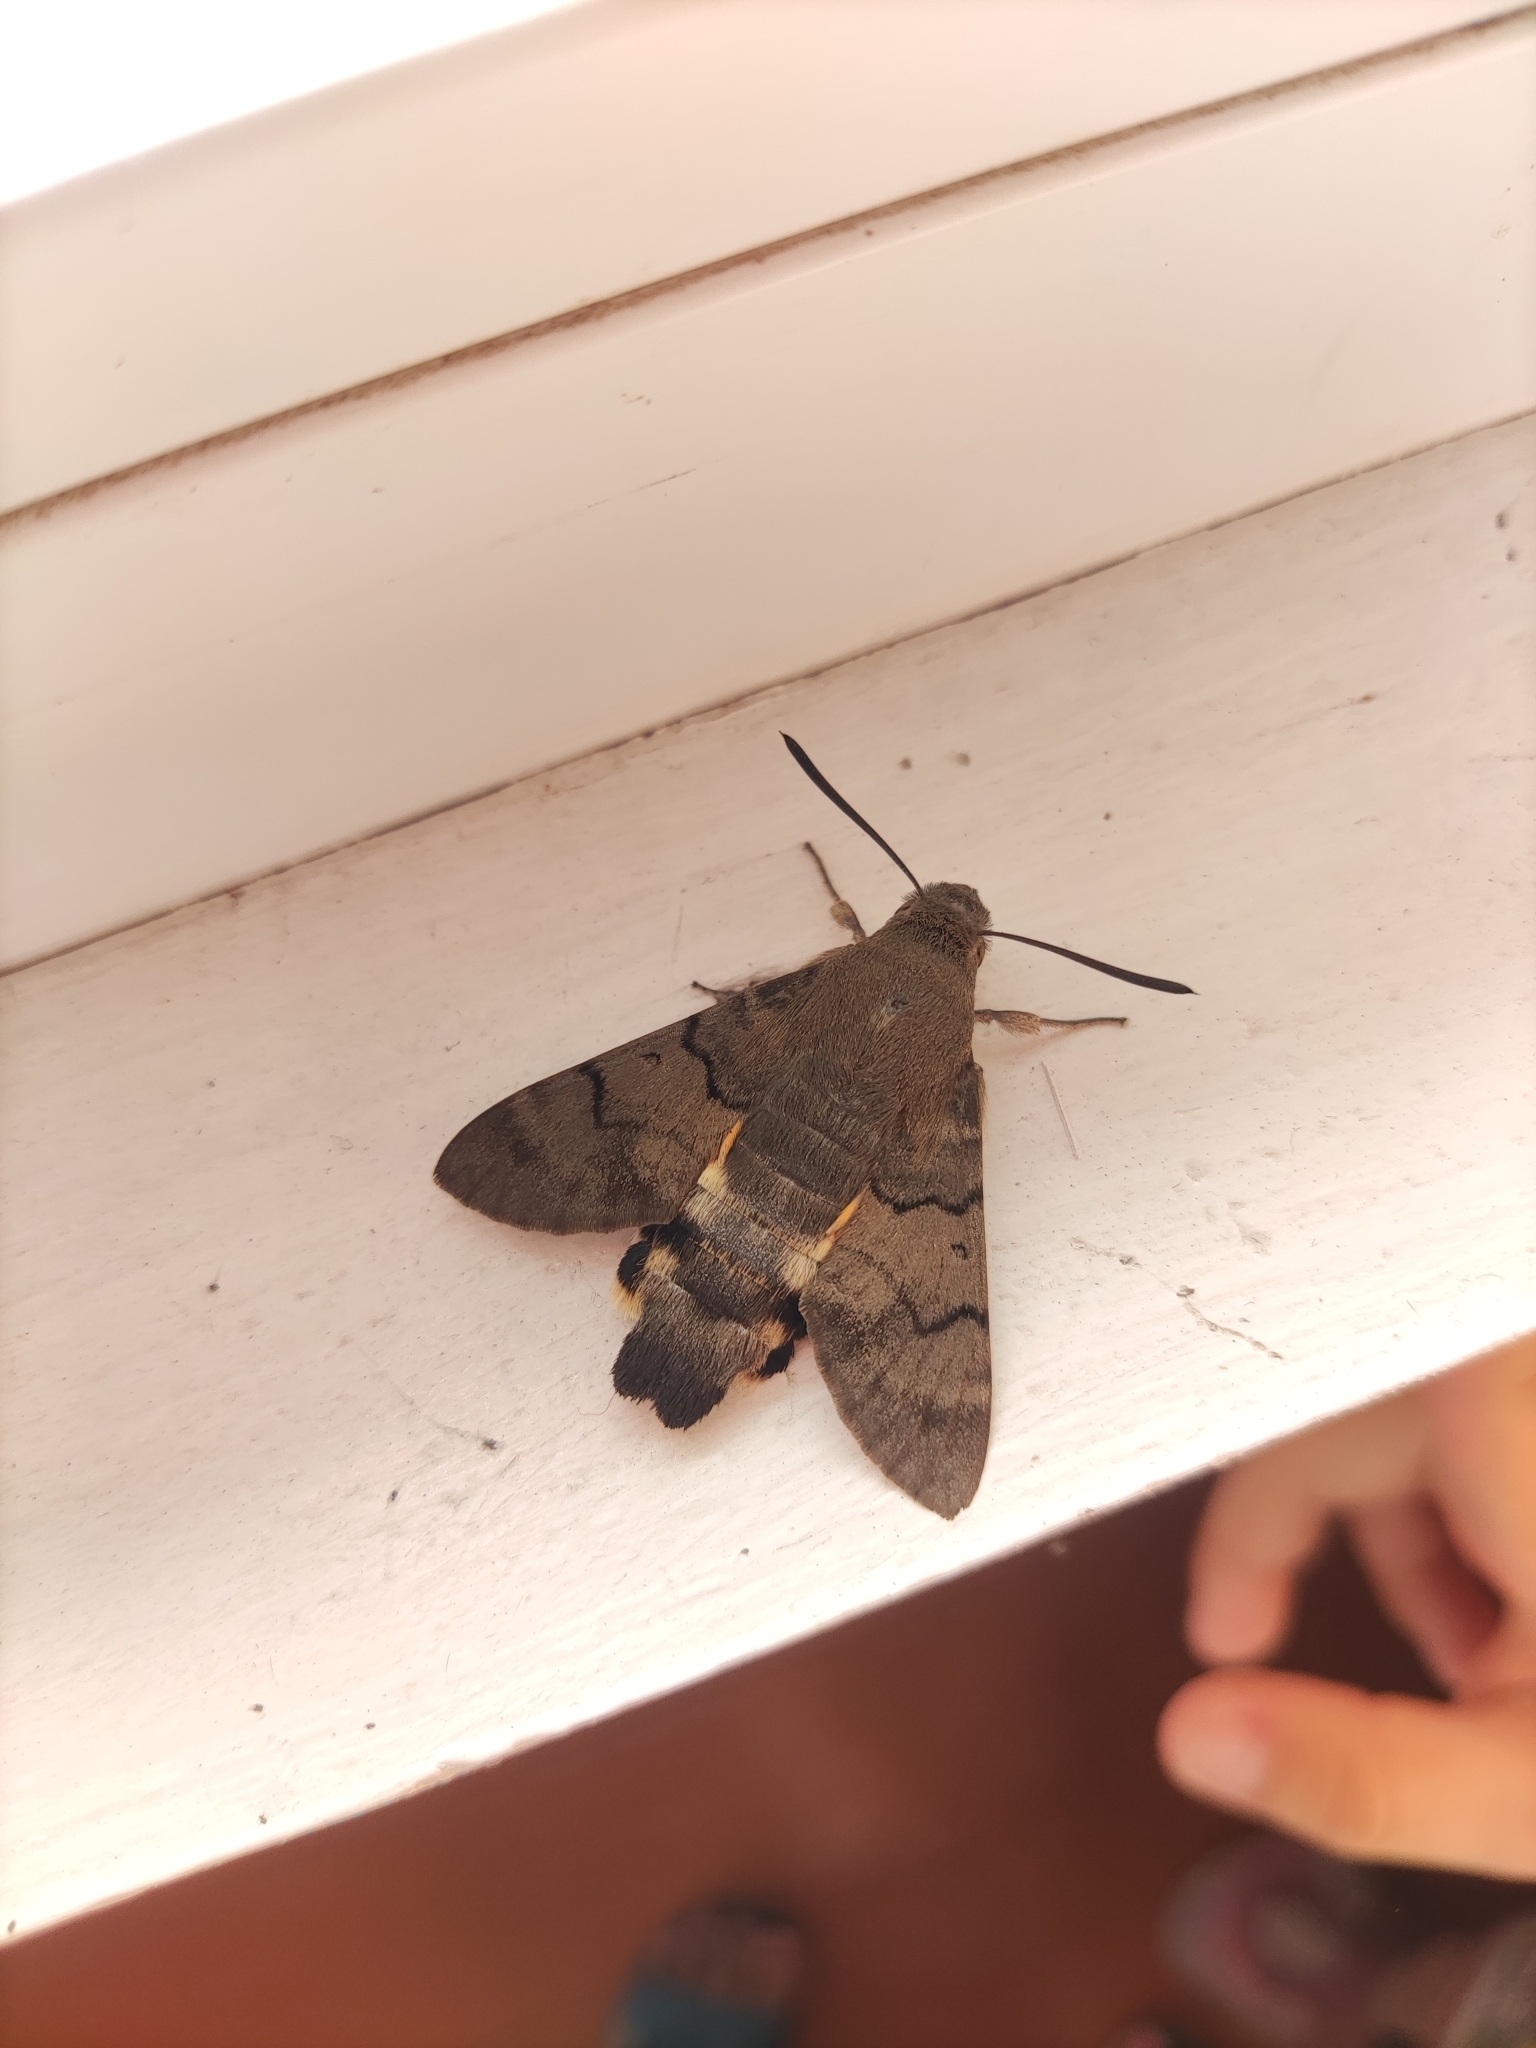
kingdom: Animalia
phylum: Arthropoda
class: Insecta
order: Lepidoptera
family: Sphingidae
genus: Macroglossum
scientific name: Macroglossum stellatarum
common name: Humming-bird hawk-moth
